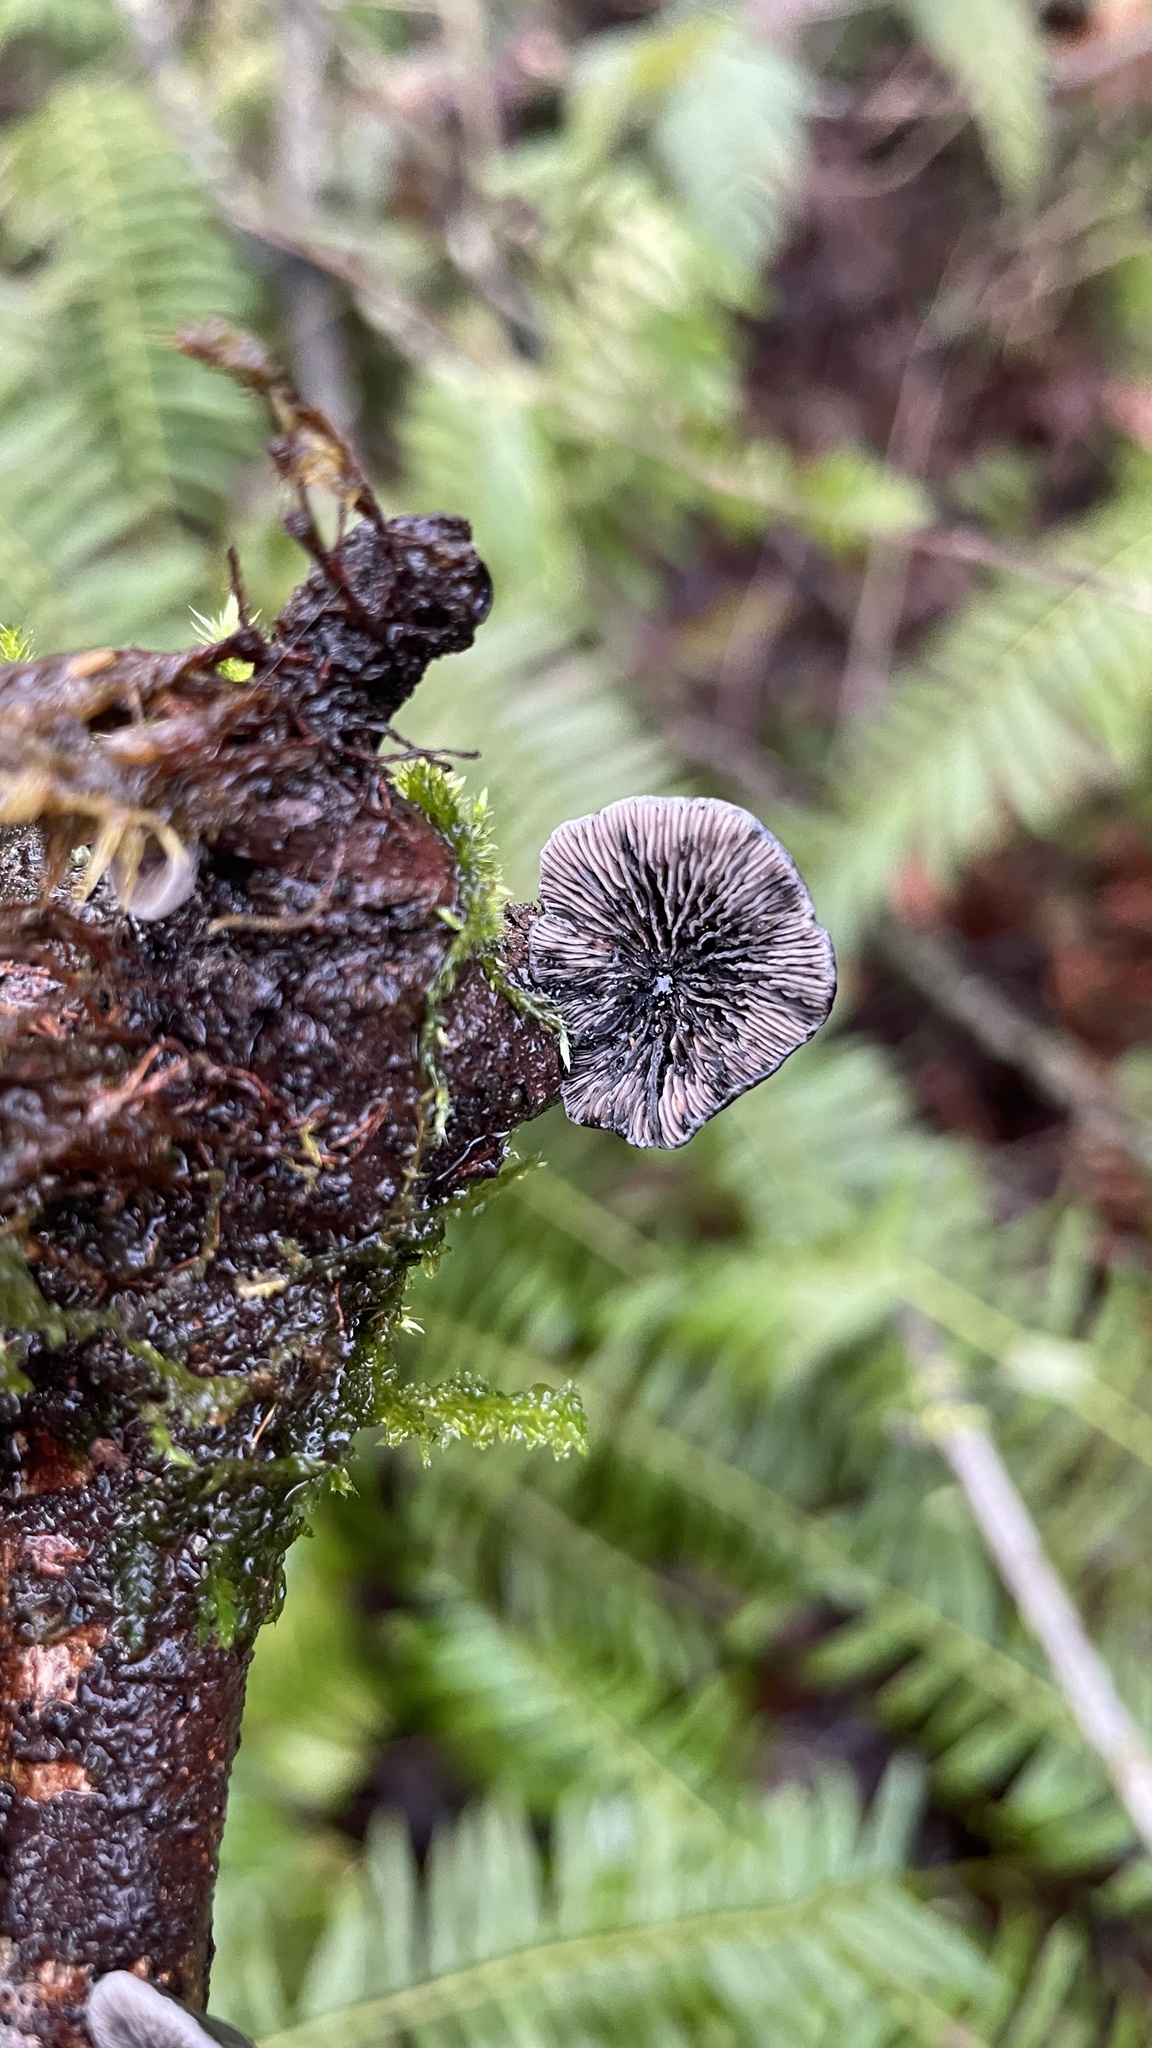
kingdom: Fungi
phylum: Basidiomycota
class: Agaricomycetes
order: Agaricales
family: Pleurotaceae
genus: Resupinatus
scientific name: Resupinatus applicatus
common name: Smoked oysterling
